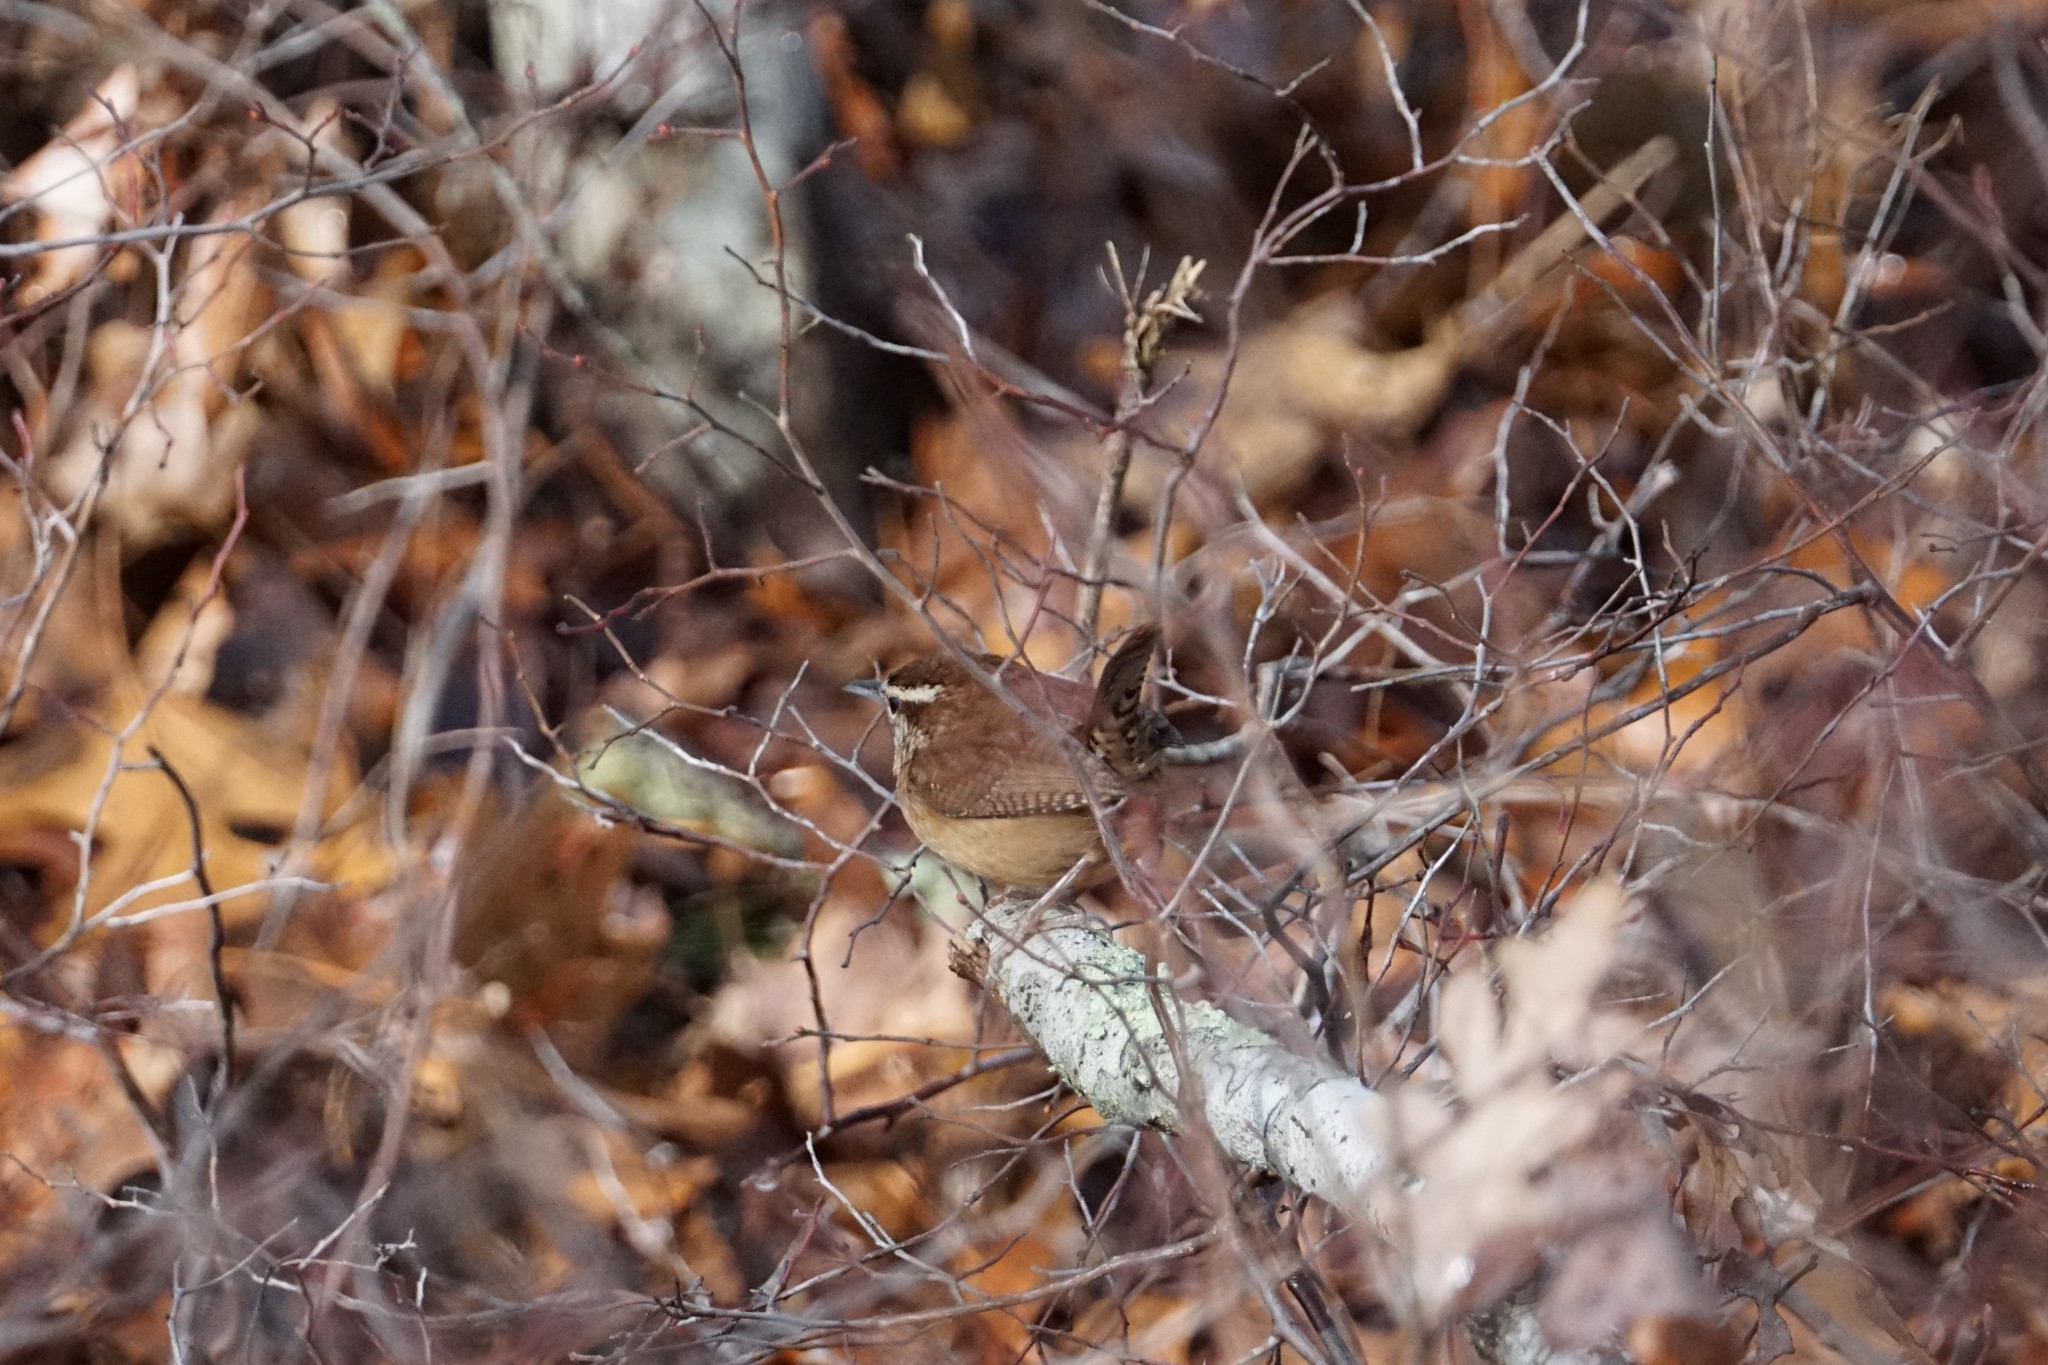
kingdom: Animalia
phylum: Chordata
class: Aves
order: Passeriformes
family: Troglodytidae
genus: Thryothorus
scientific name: Thryothorus ludovicianus
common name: Carolina wren
